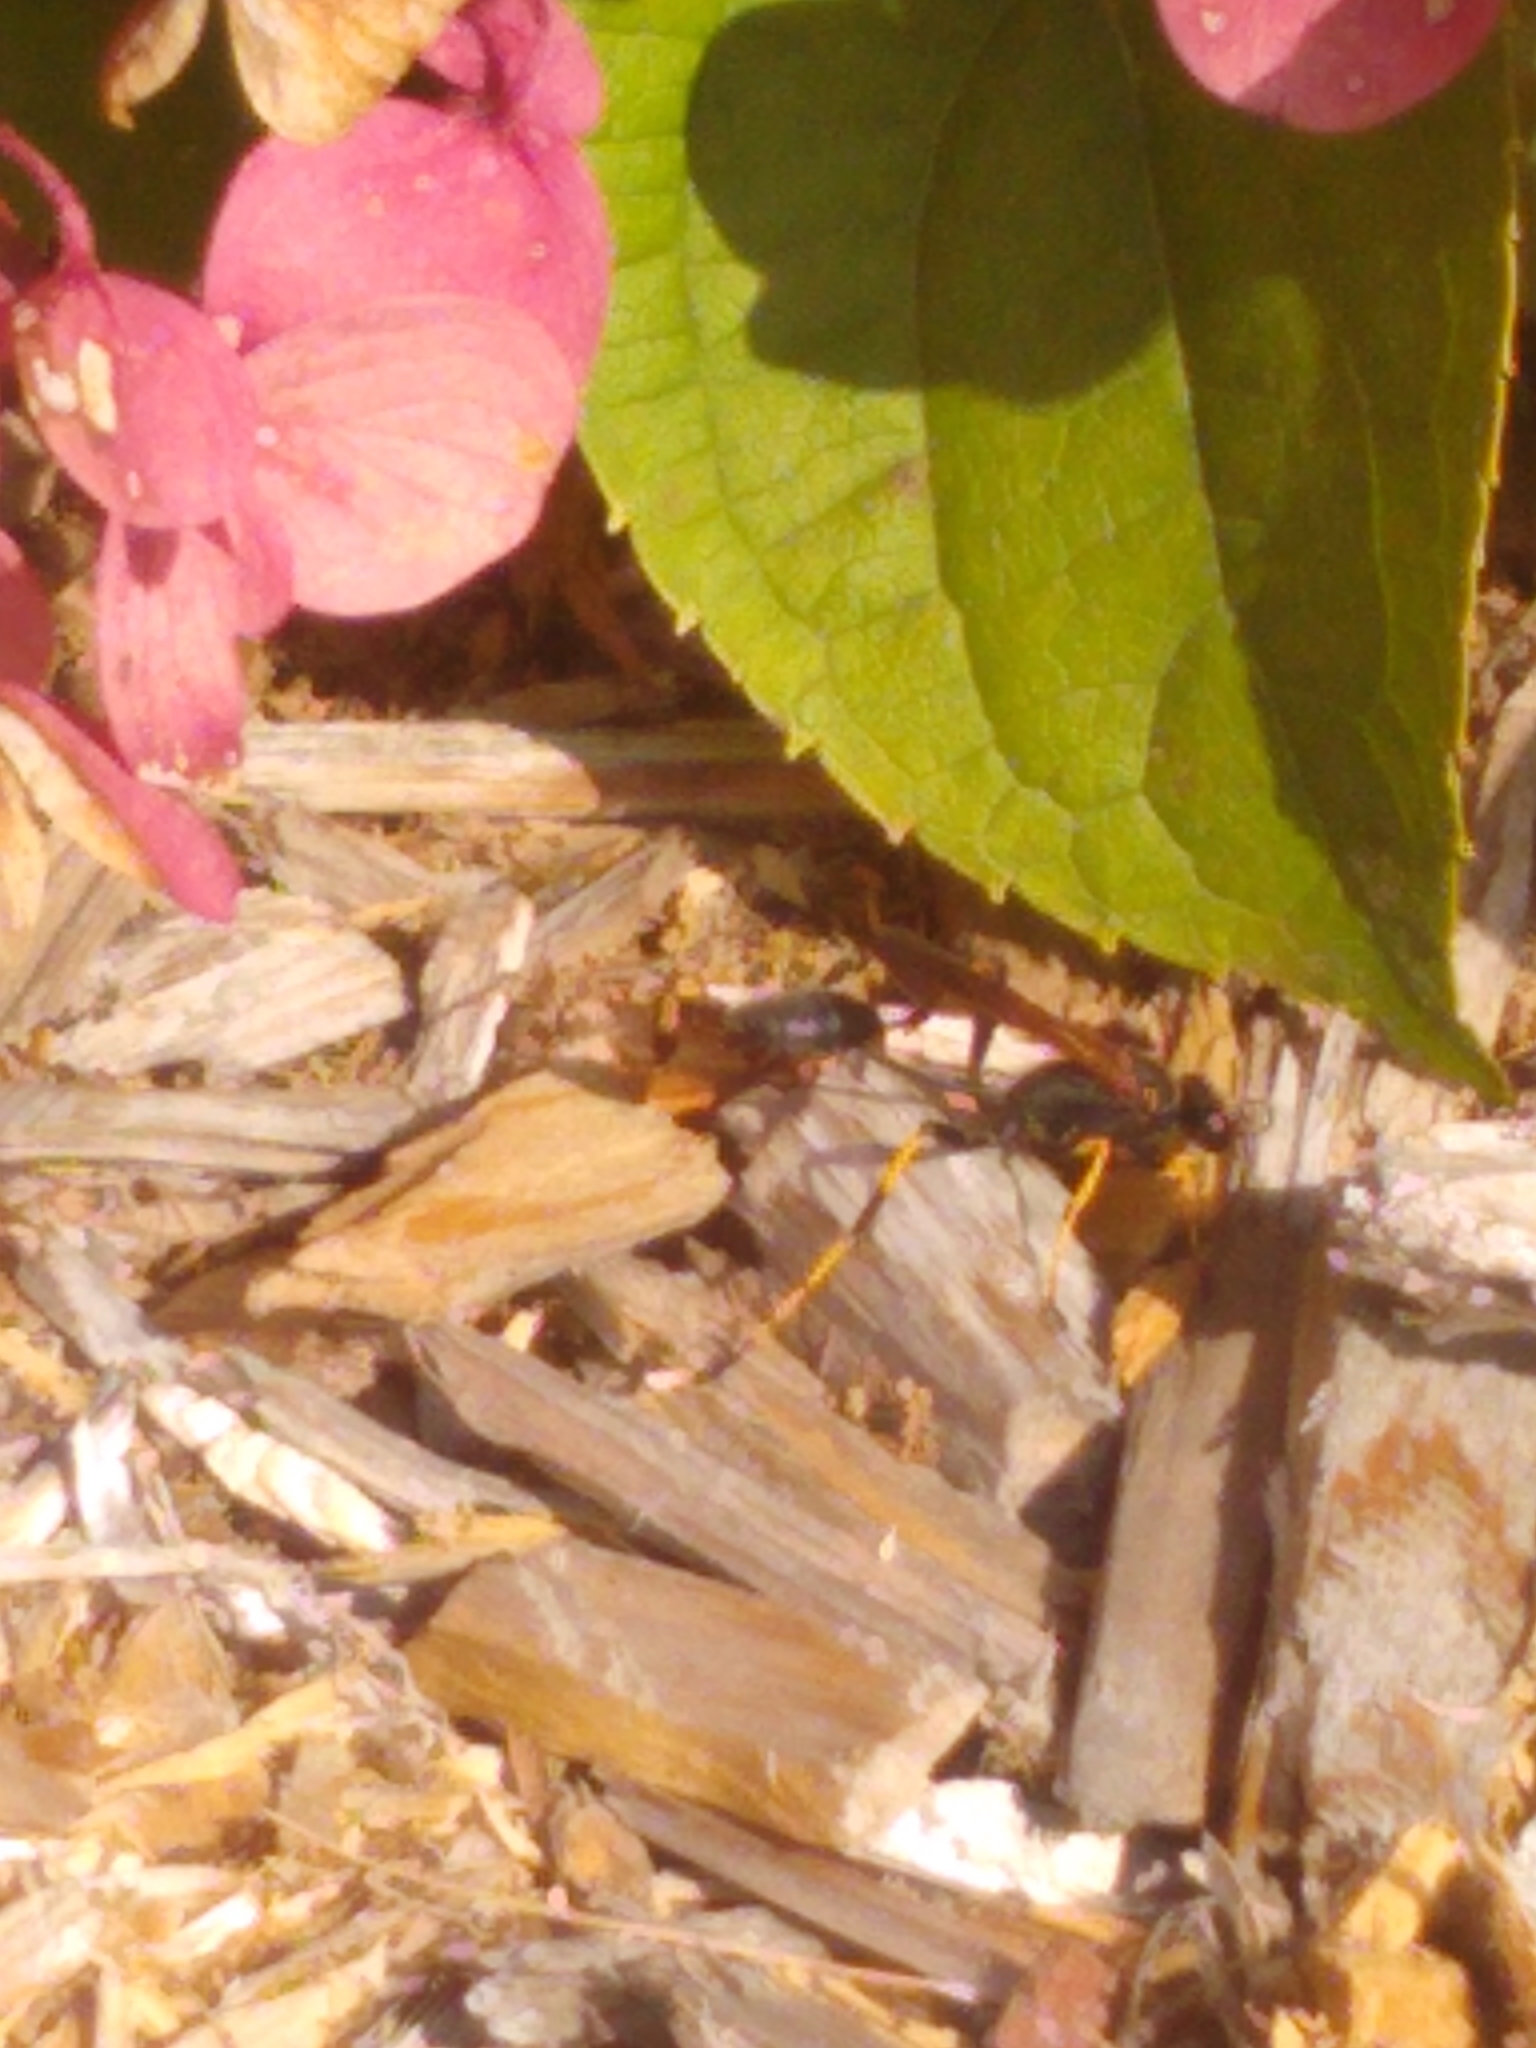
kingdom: Animalia
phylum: Arthropoda
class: Insecta
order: Hymenoptera
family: Sphecidae
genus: Sceliphron
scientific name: Sceliphron caementarium
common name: Mud dauber
